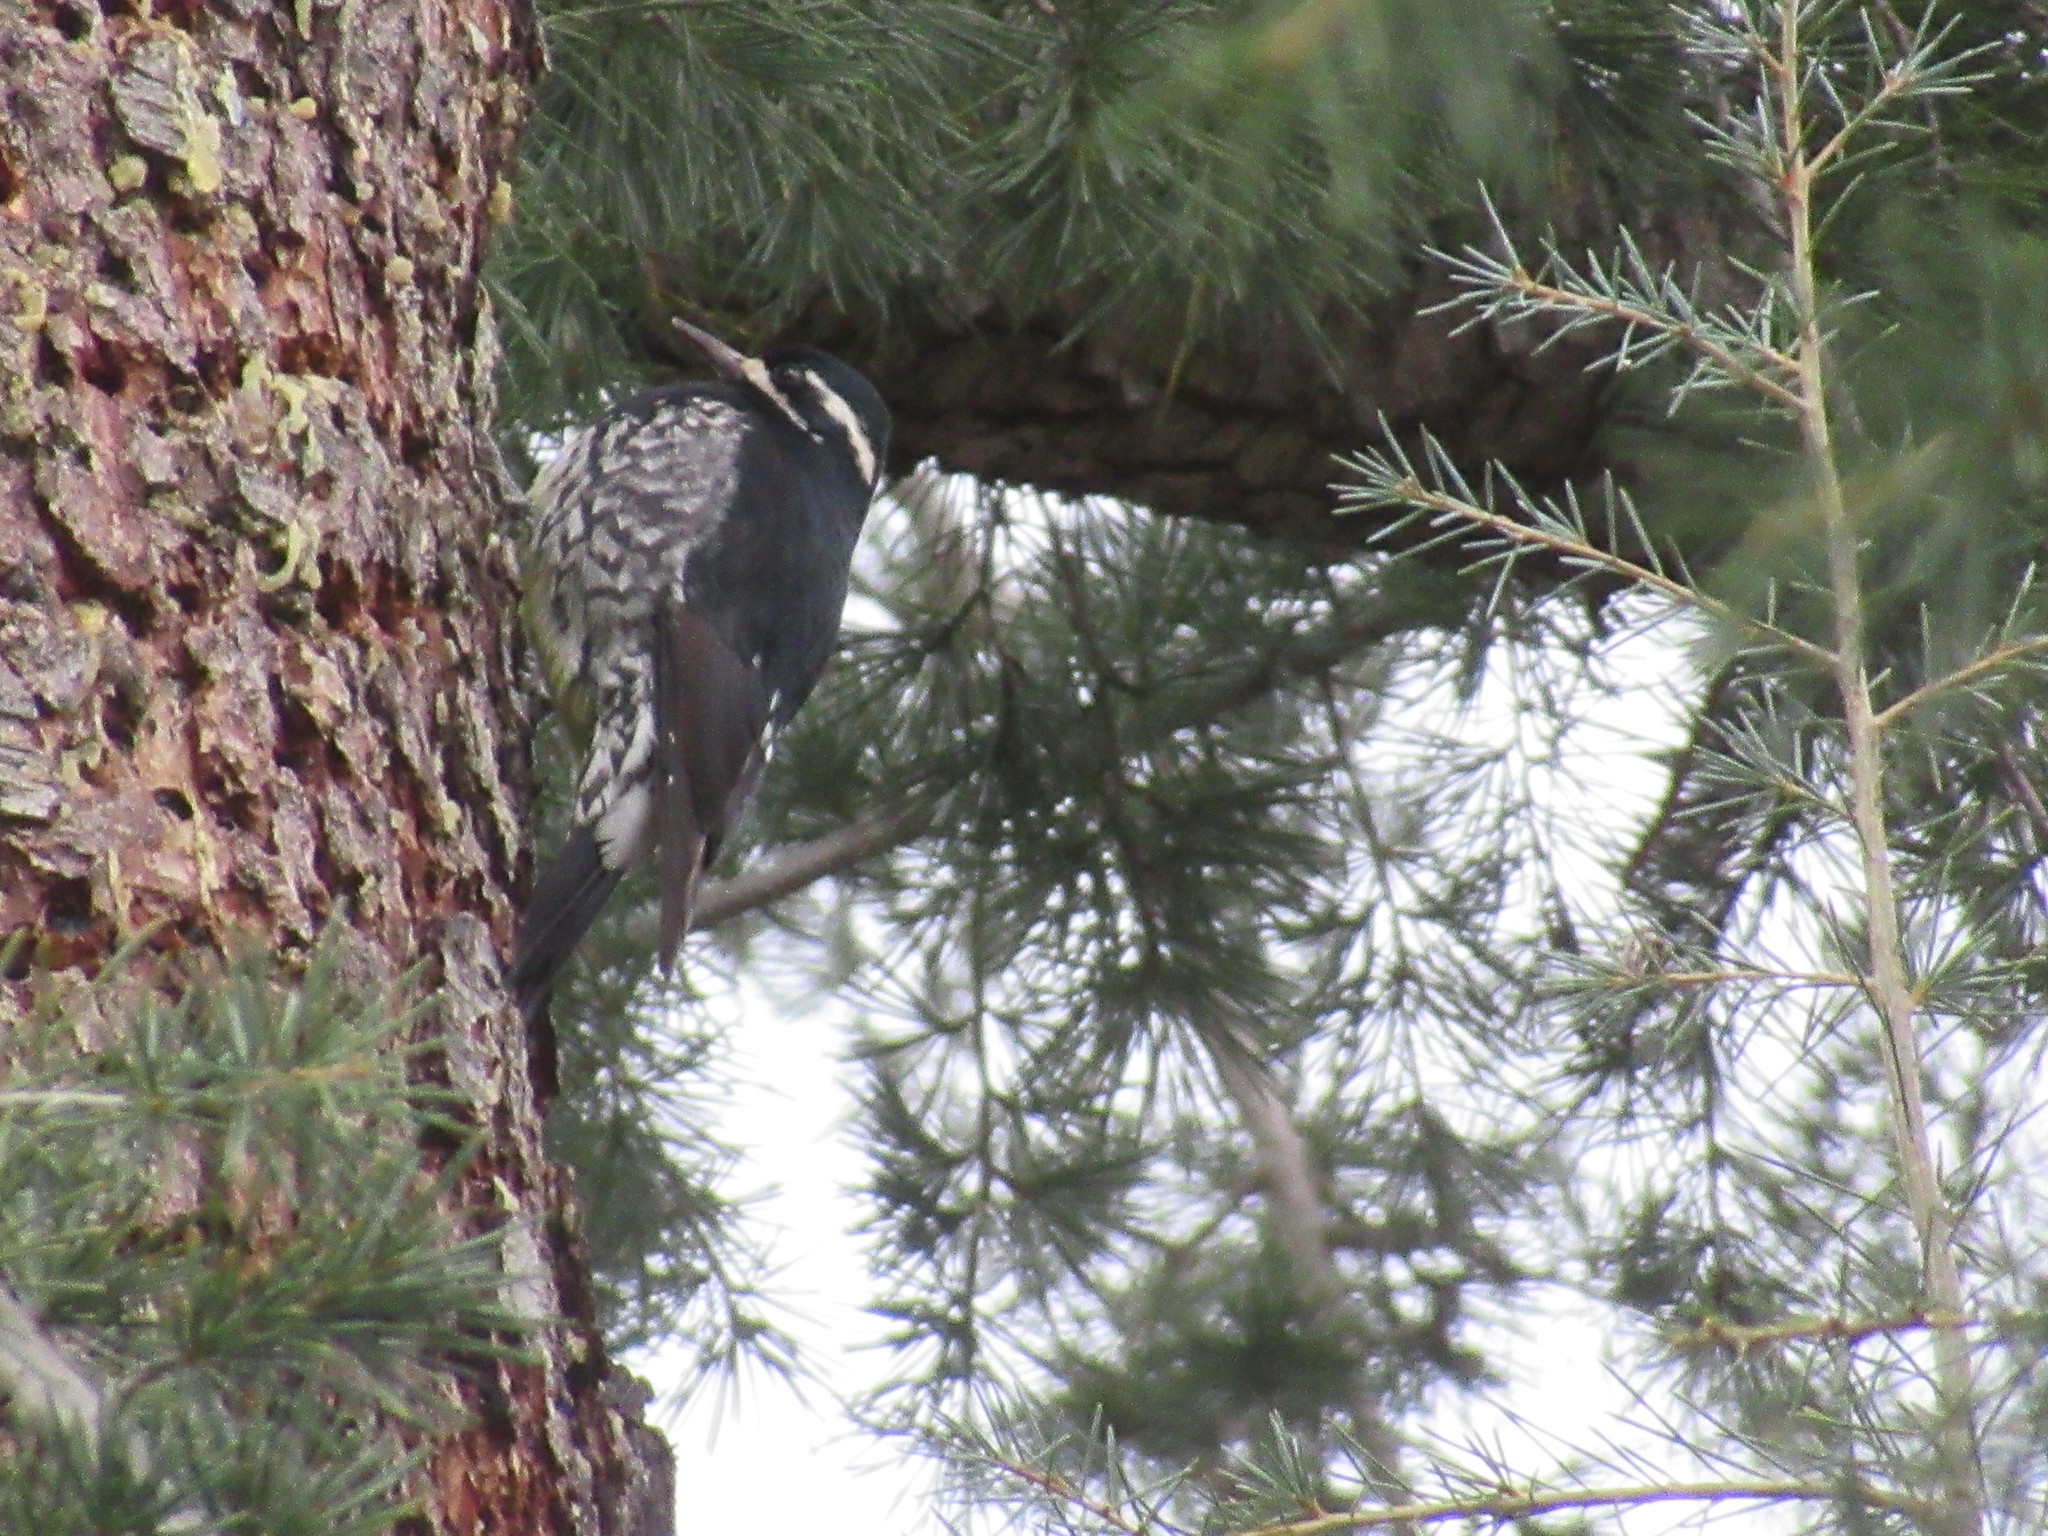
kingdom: Animalia
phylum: Chordata
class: Aves
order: Piciformes
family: Picidae
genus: Sphyrapicus
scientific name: Sphyrapicus thyroideus
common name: Williamson's sapsucker
